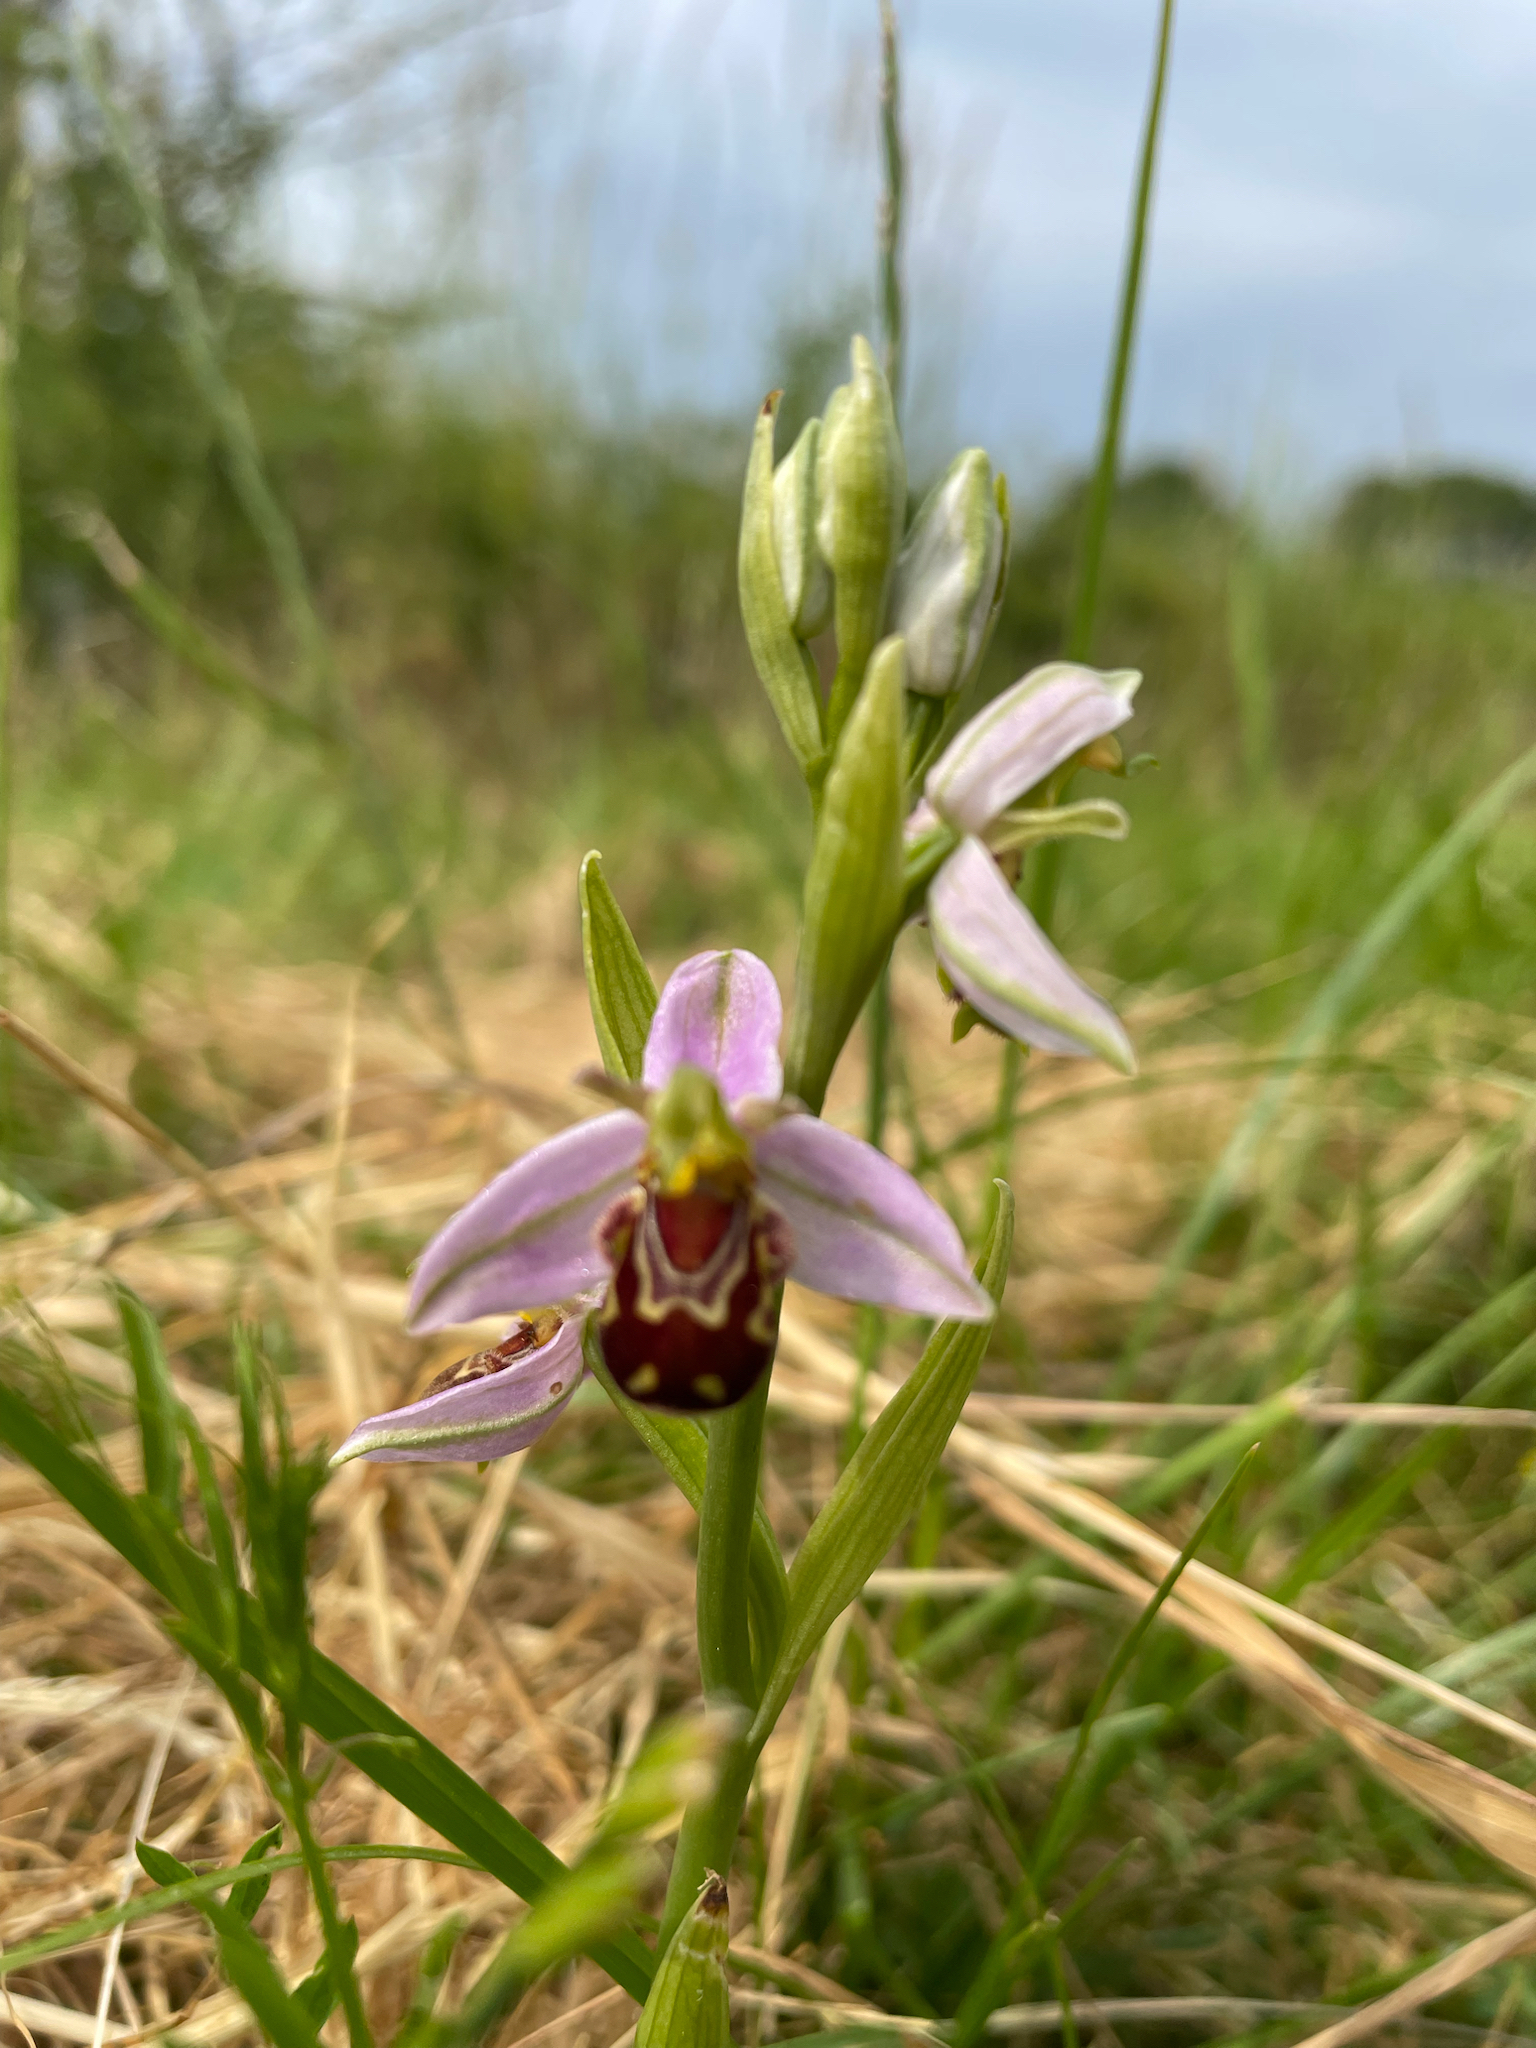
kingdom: Plantae
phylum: Tracheophyta
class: Liliopsida
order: Asparagales
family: Orchidaceae
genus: Ophrys
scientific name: Ophrys apifera
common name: Bee orchid
